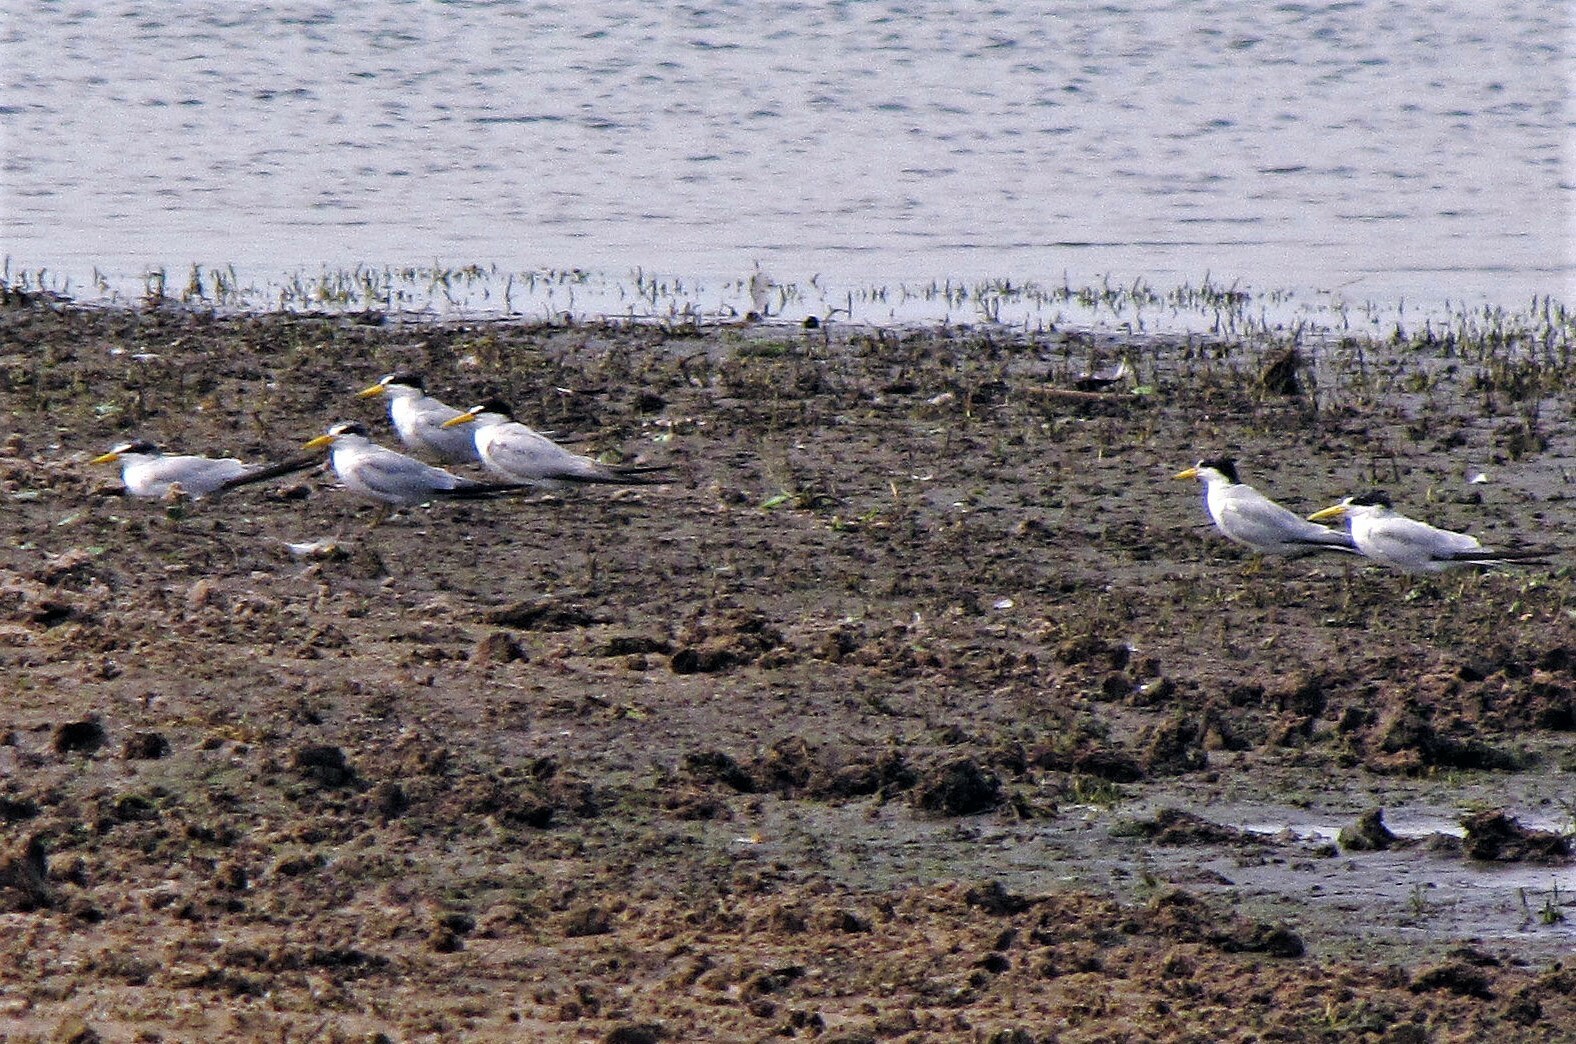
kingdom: Animalia
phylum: Chordata
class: Aves
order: Charadriiformes
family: Laridae
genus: Sternula
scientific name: Sternula superciliaris
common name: Yellow-billed tern
